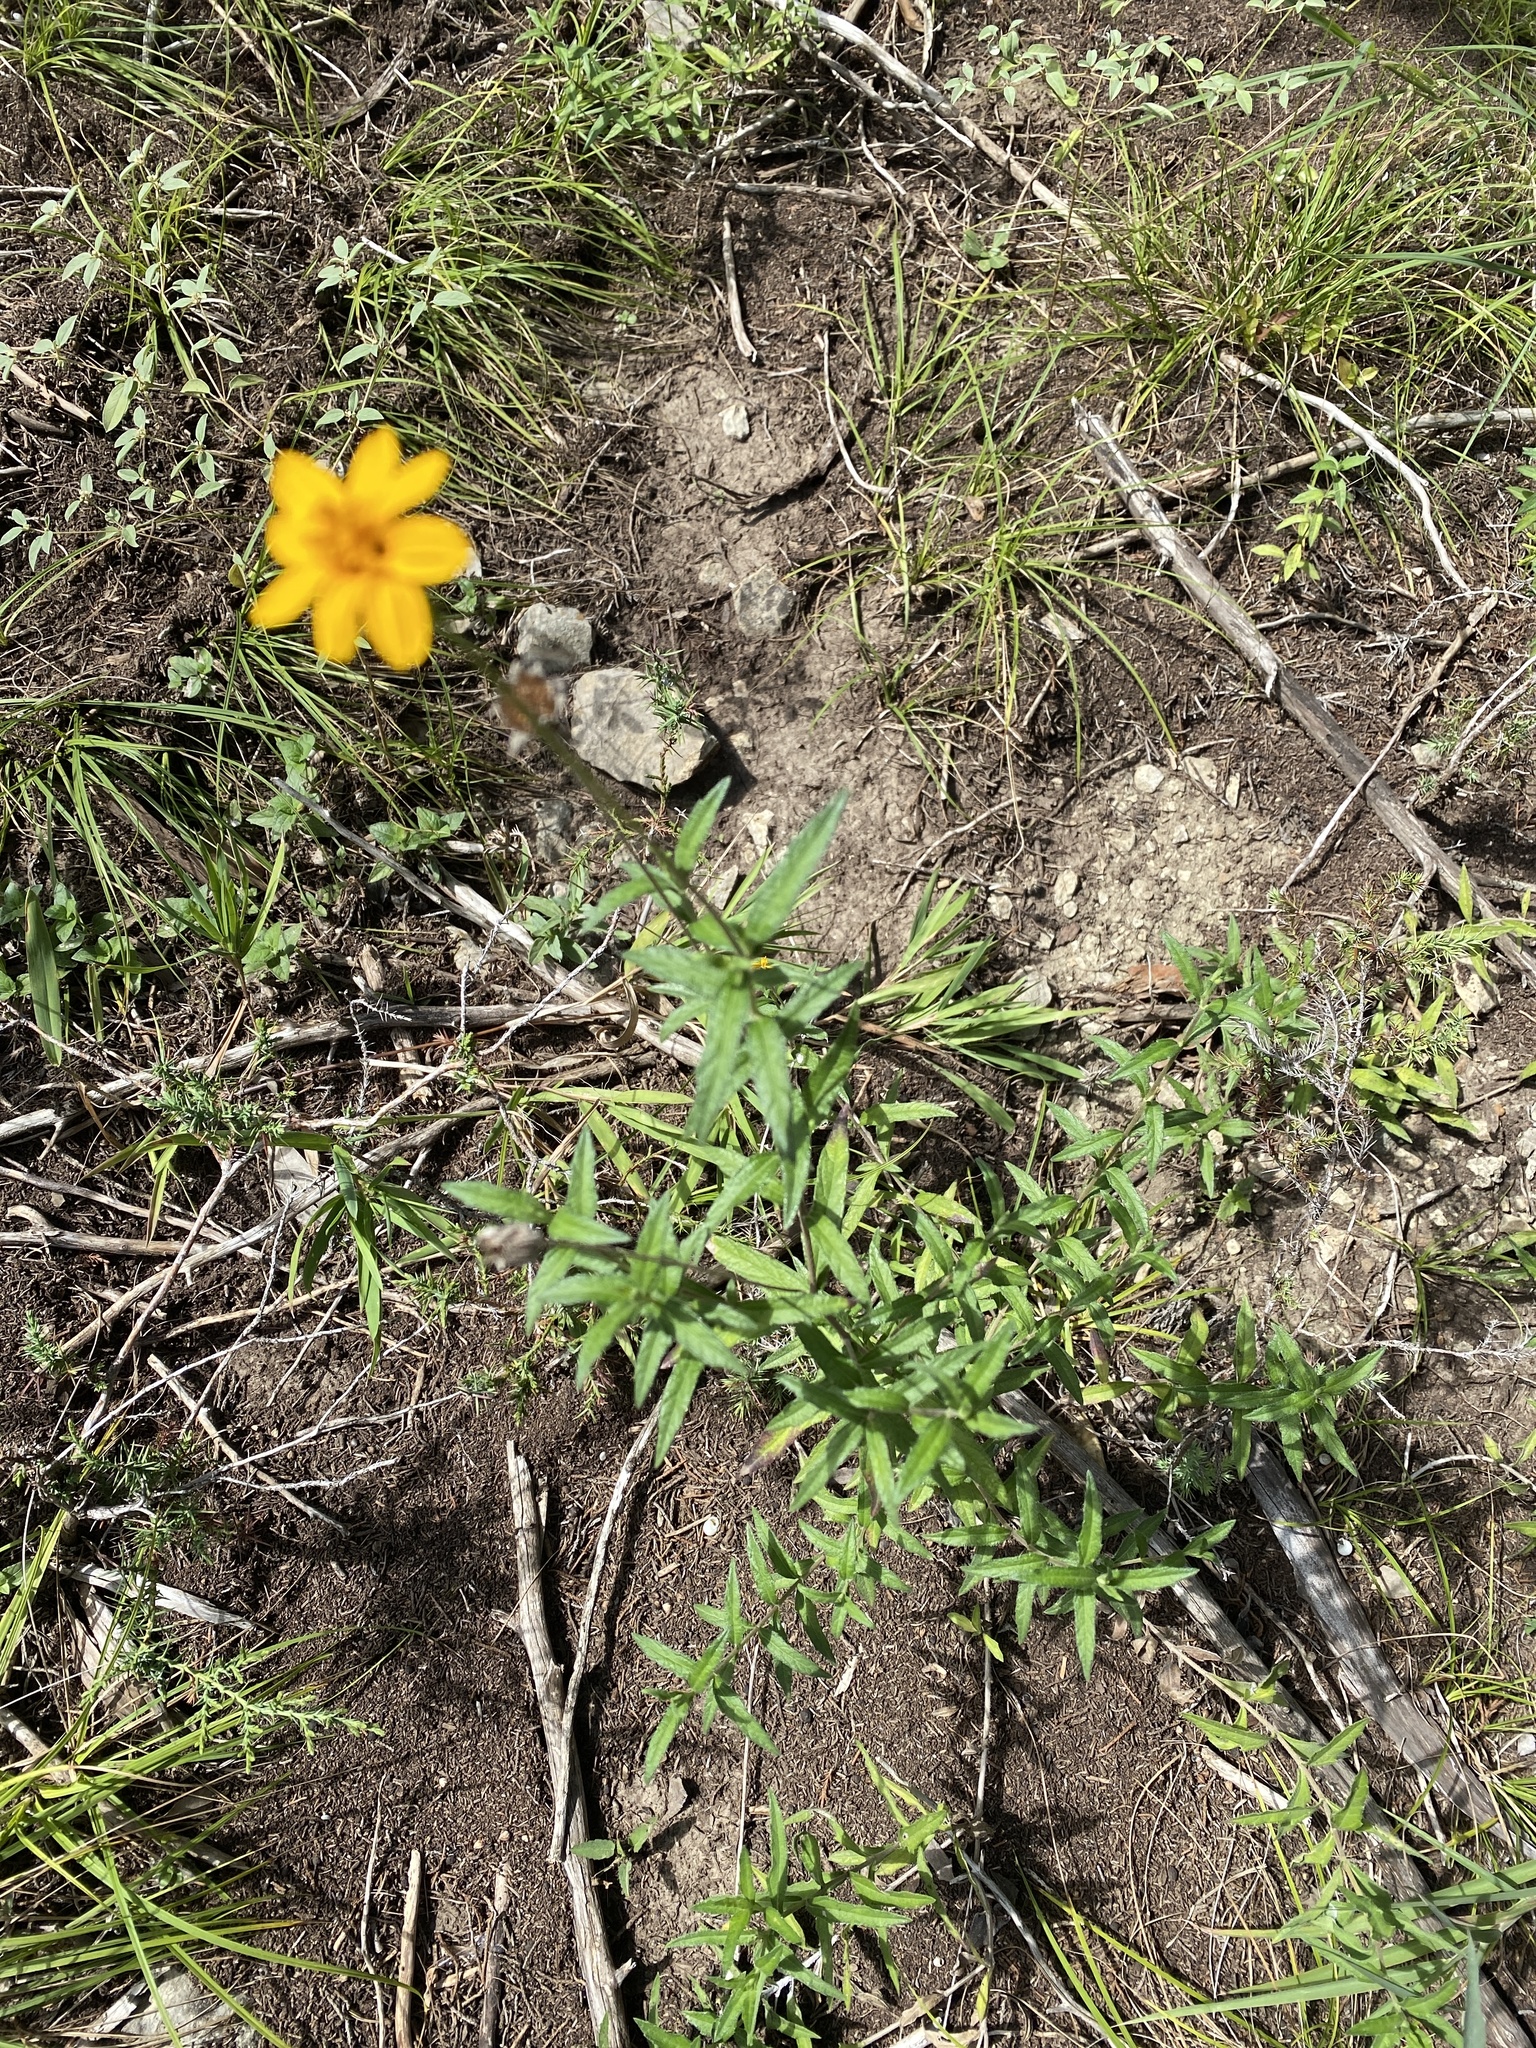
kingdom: Plantae
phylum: Tracheophyta
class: Magnoliopsida
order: Asterales
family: Asteraceae
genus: Wedelia
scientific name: Wedelia acapulcensis
